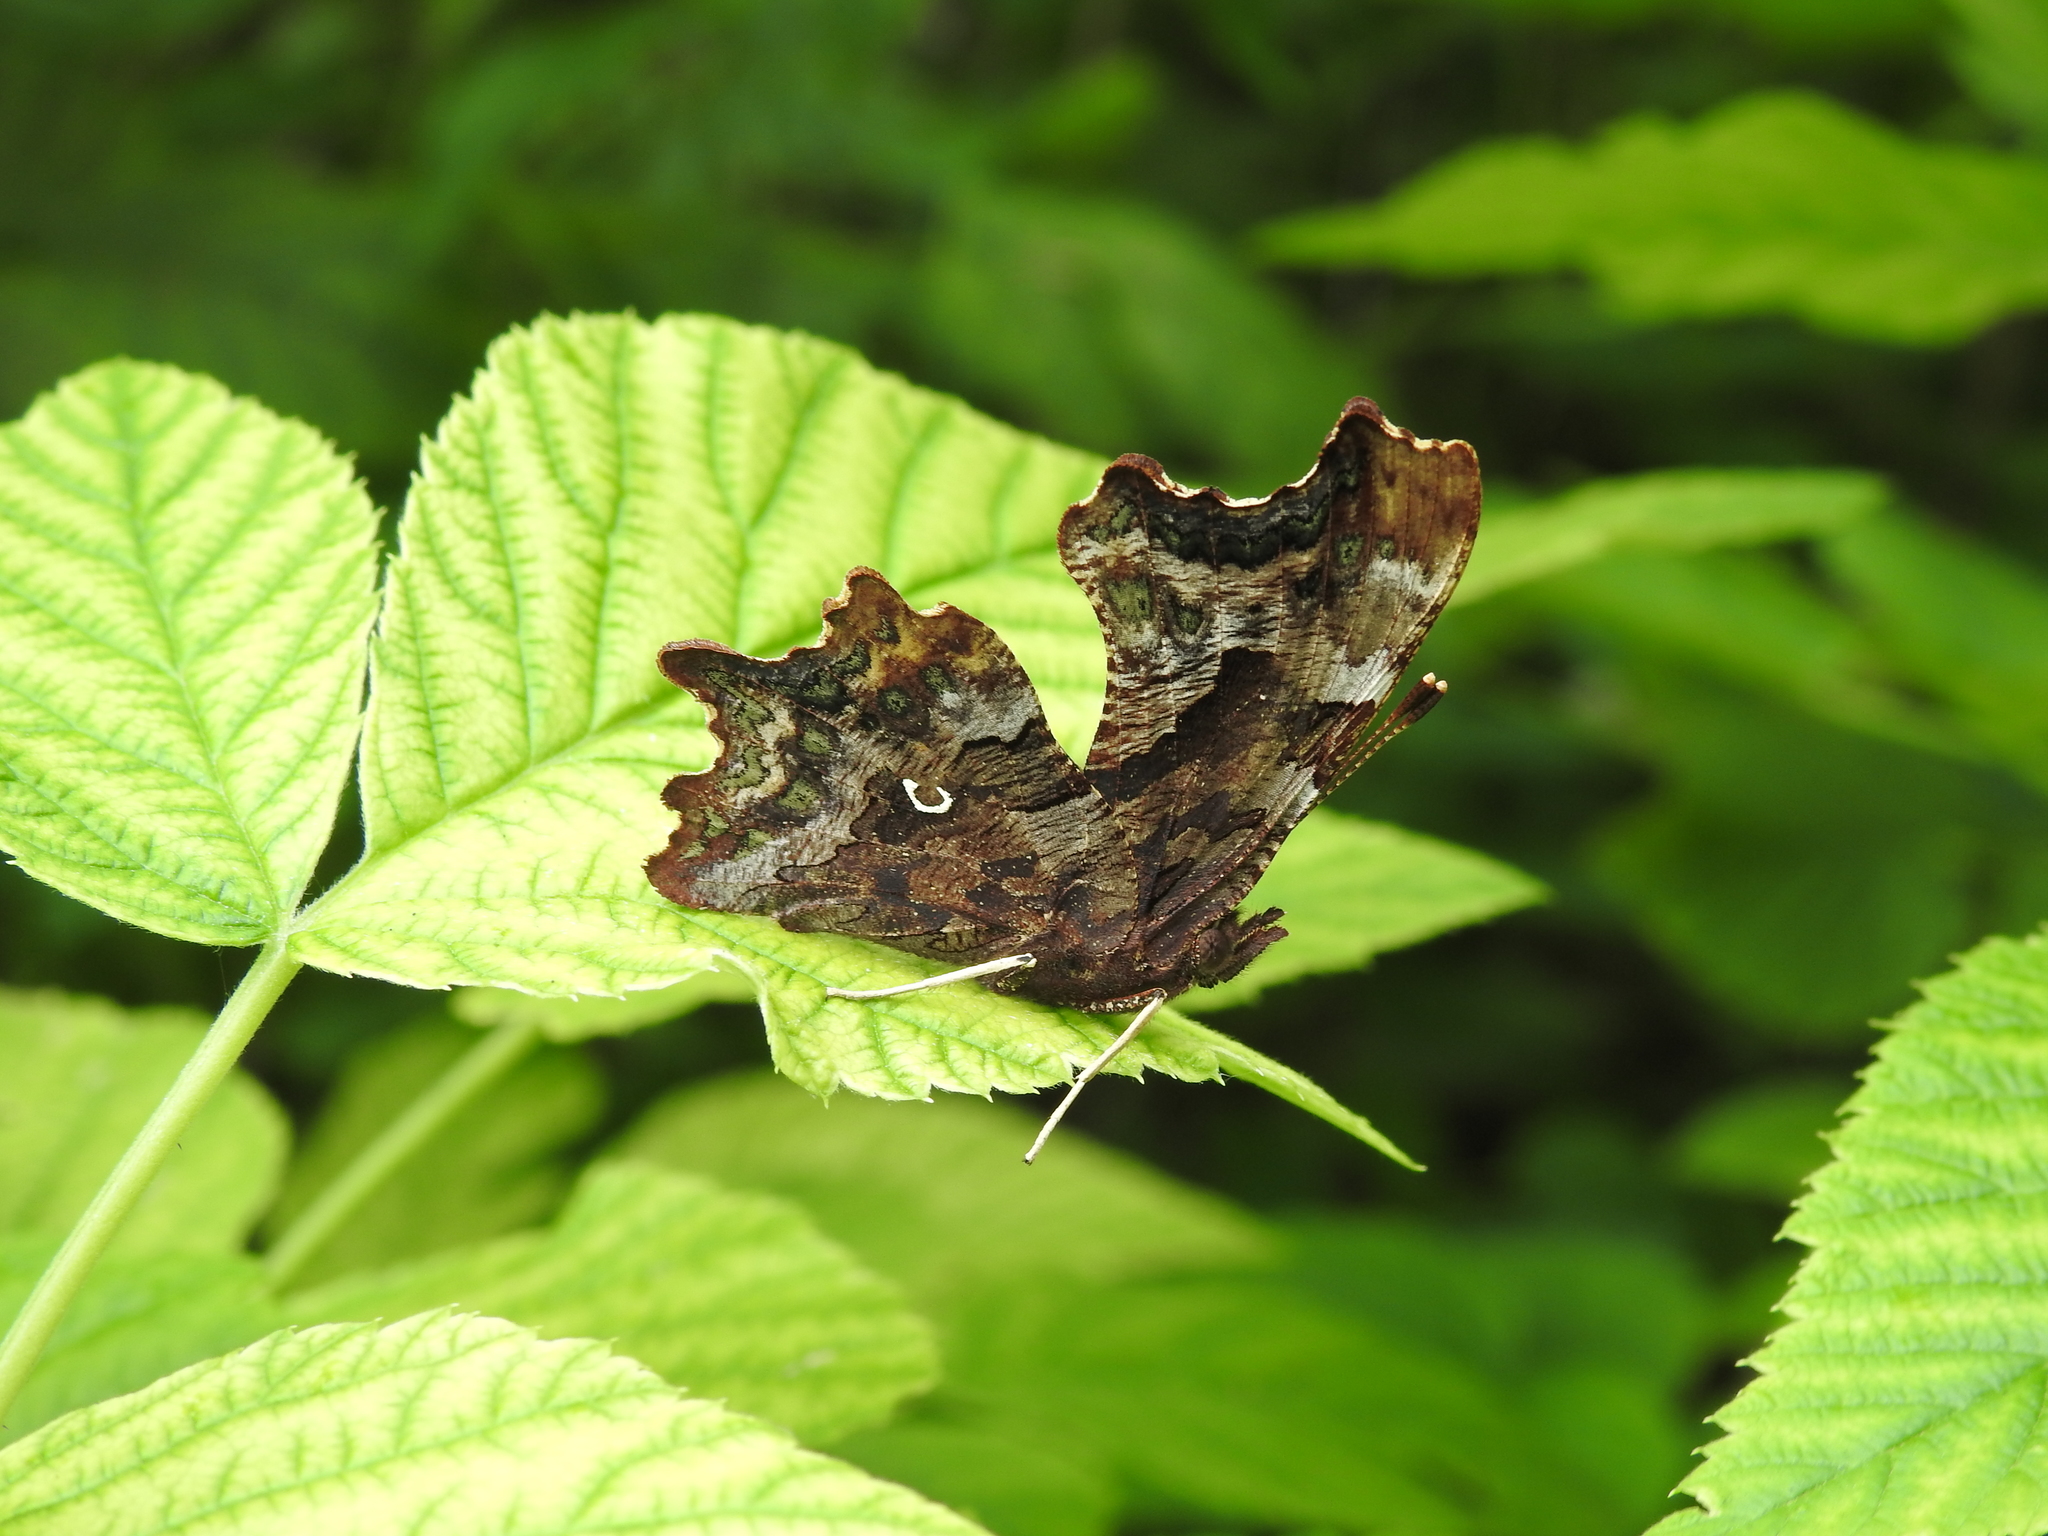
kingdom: Animalia
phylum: Arthropoda
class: Insecta
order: Lepidoptera
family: Nymphalidae
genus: Polygonia
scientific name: Polygonia c-album
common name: Comma
